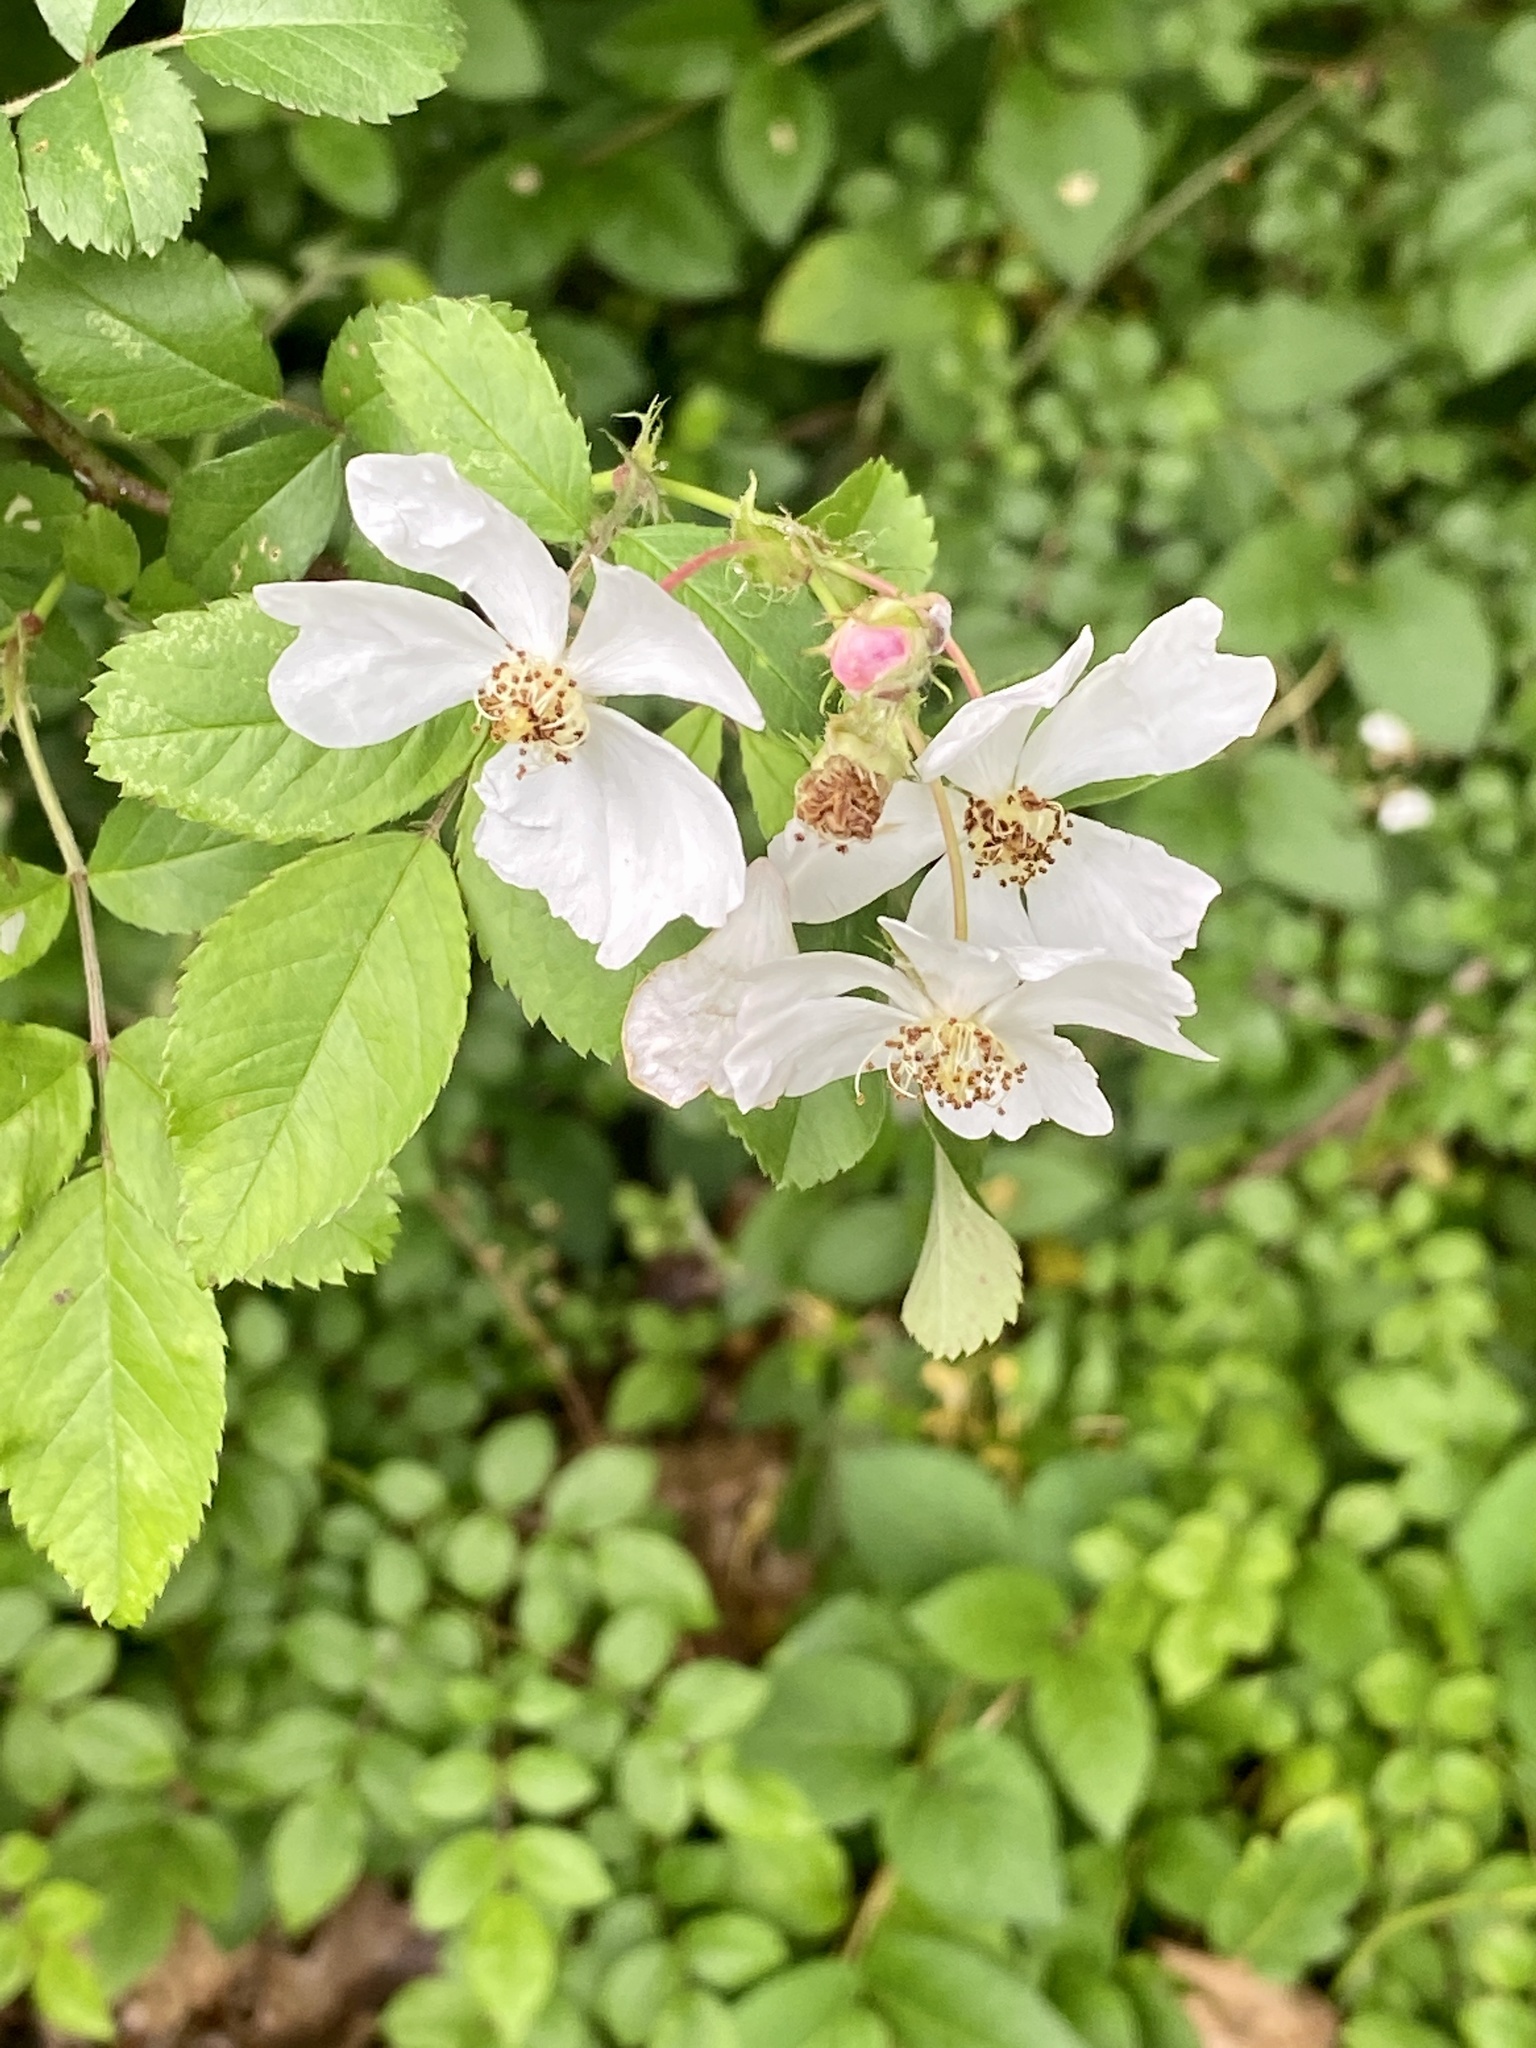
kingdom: Plantae
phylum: Tracheophyta
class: Magnoliopsida
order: Rosales
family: Rosaceae
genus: Rosa
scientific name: Rosa multiflora
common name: Multiflora rose
